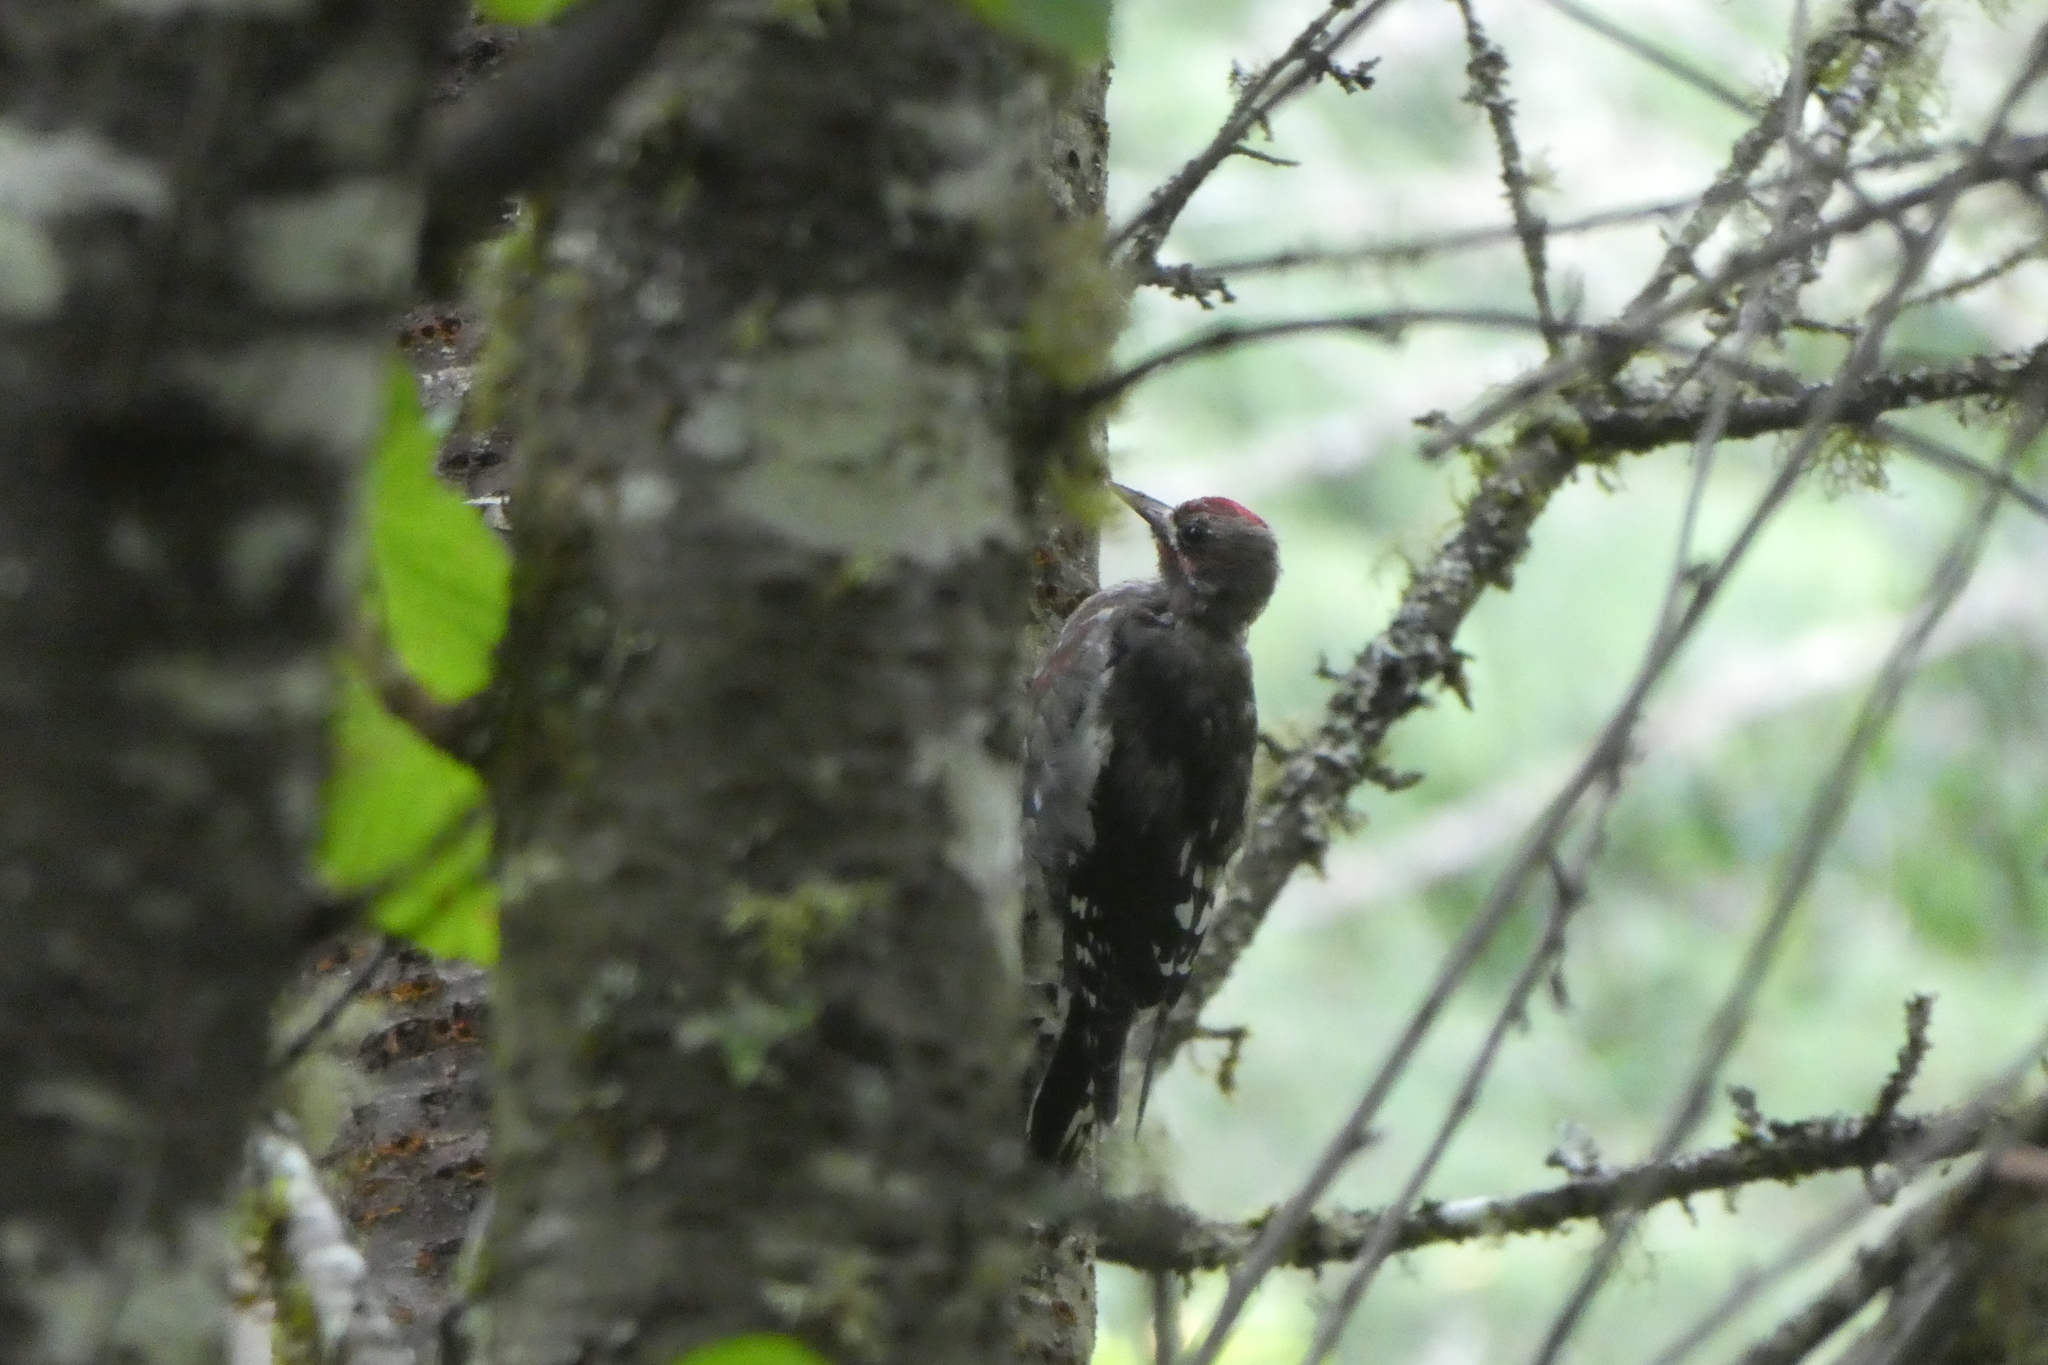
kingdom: Animalia
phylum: Chordata
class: Aves
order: Piciformes
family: Picidae
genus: Sphyrapicus
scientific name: Sphyrapicus ruber
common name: Red-breasted sapsucker
